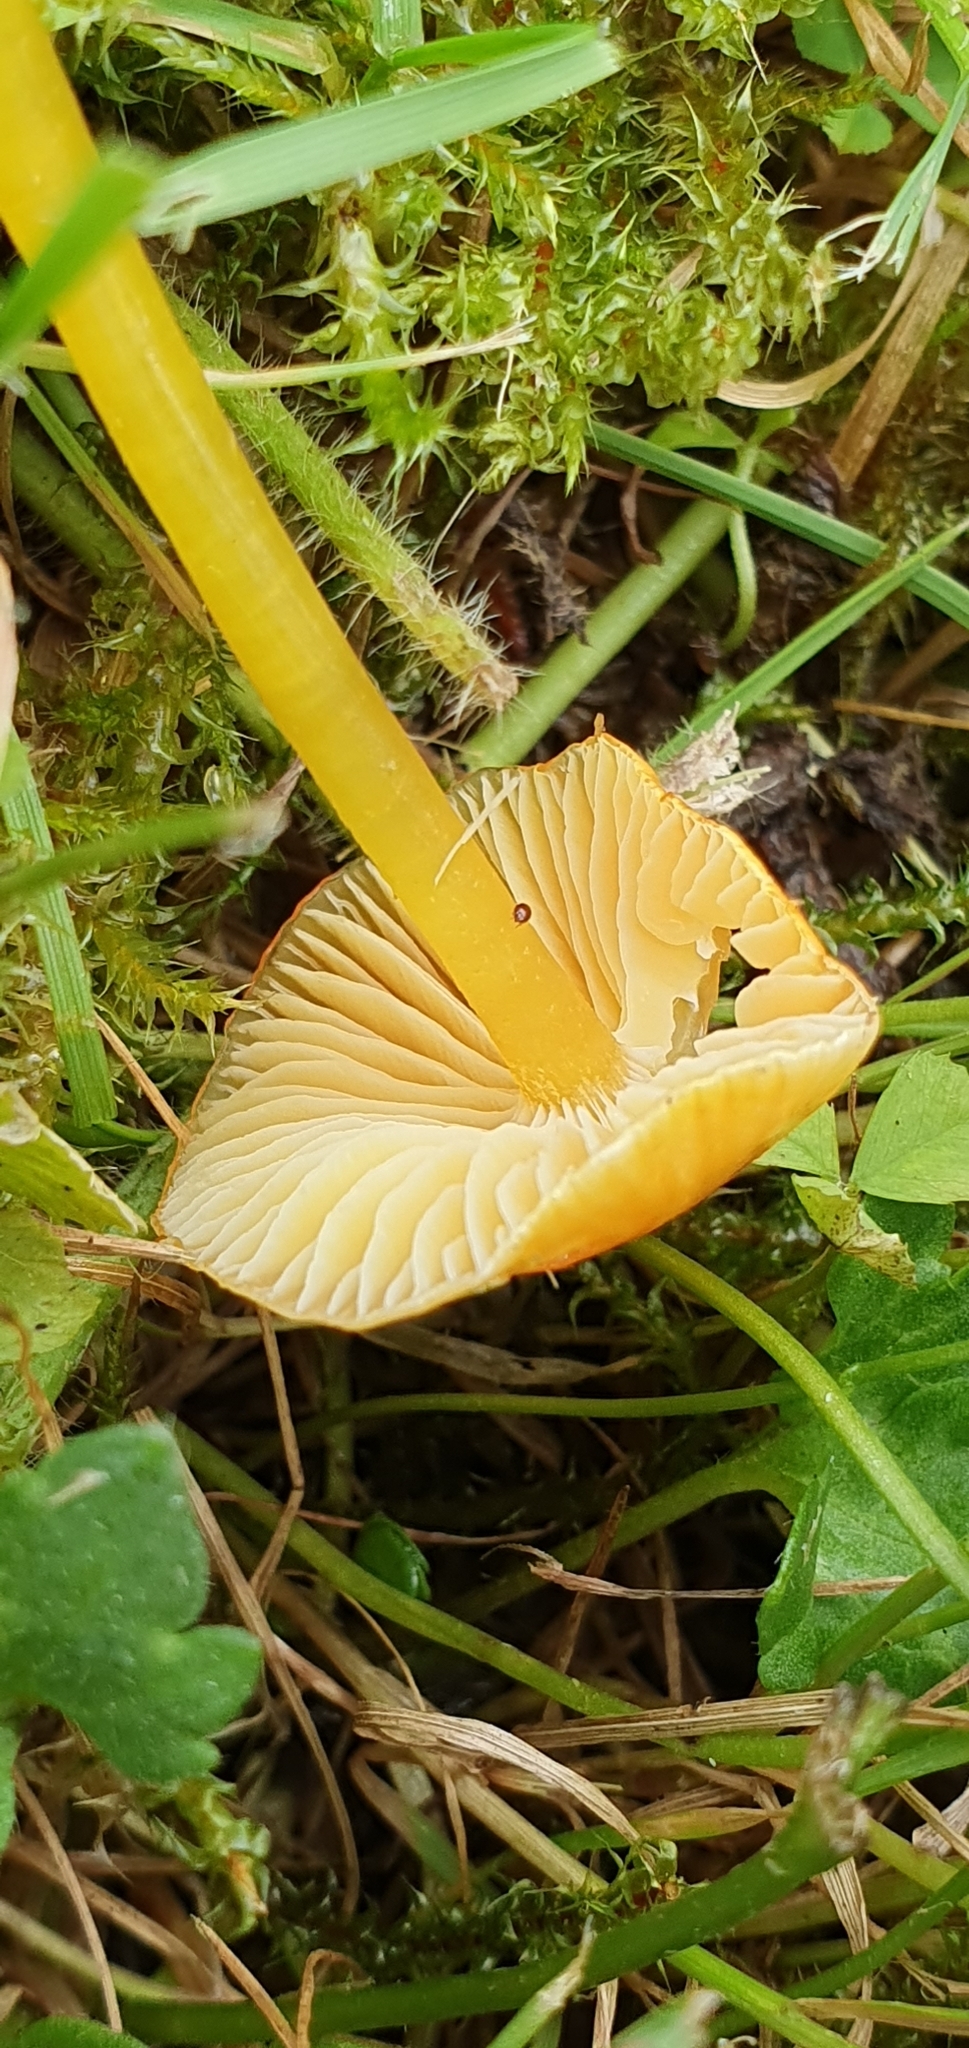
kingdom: Fungi
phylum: Basidiomycota
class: Agaricomycetes
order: Agaricales
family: Hygrophoraceae
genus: Hygrocybe
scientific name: Hygrocybe glutinipes
